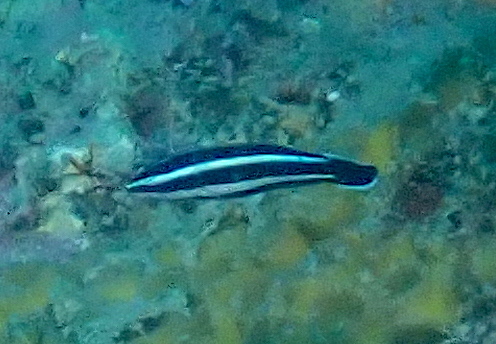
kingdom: Animalia
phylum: Chordata
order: Perciformes
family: Labridae
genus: Labropsis
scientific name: Labropsis manabei
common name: Northern tubelip
